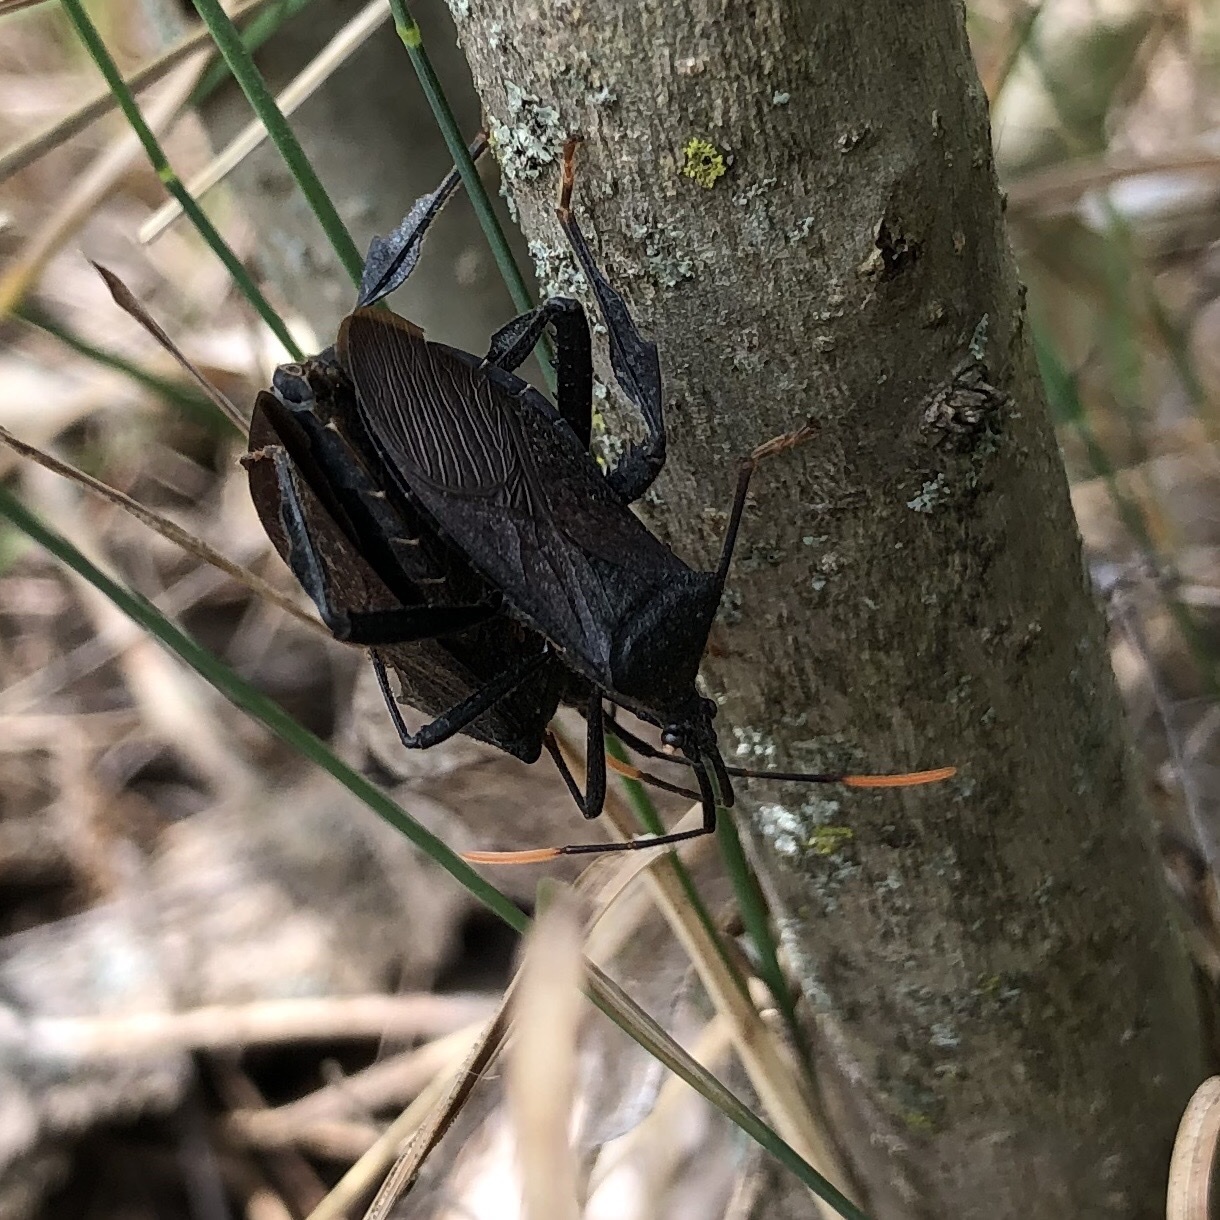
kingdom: Animalia
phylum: Arthropoda
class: Insecta
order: Hemiptera
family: Coreidae
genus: Acanthocephala
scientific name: Acanthocephala terminalis
